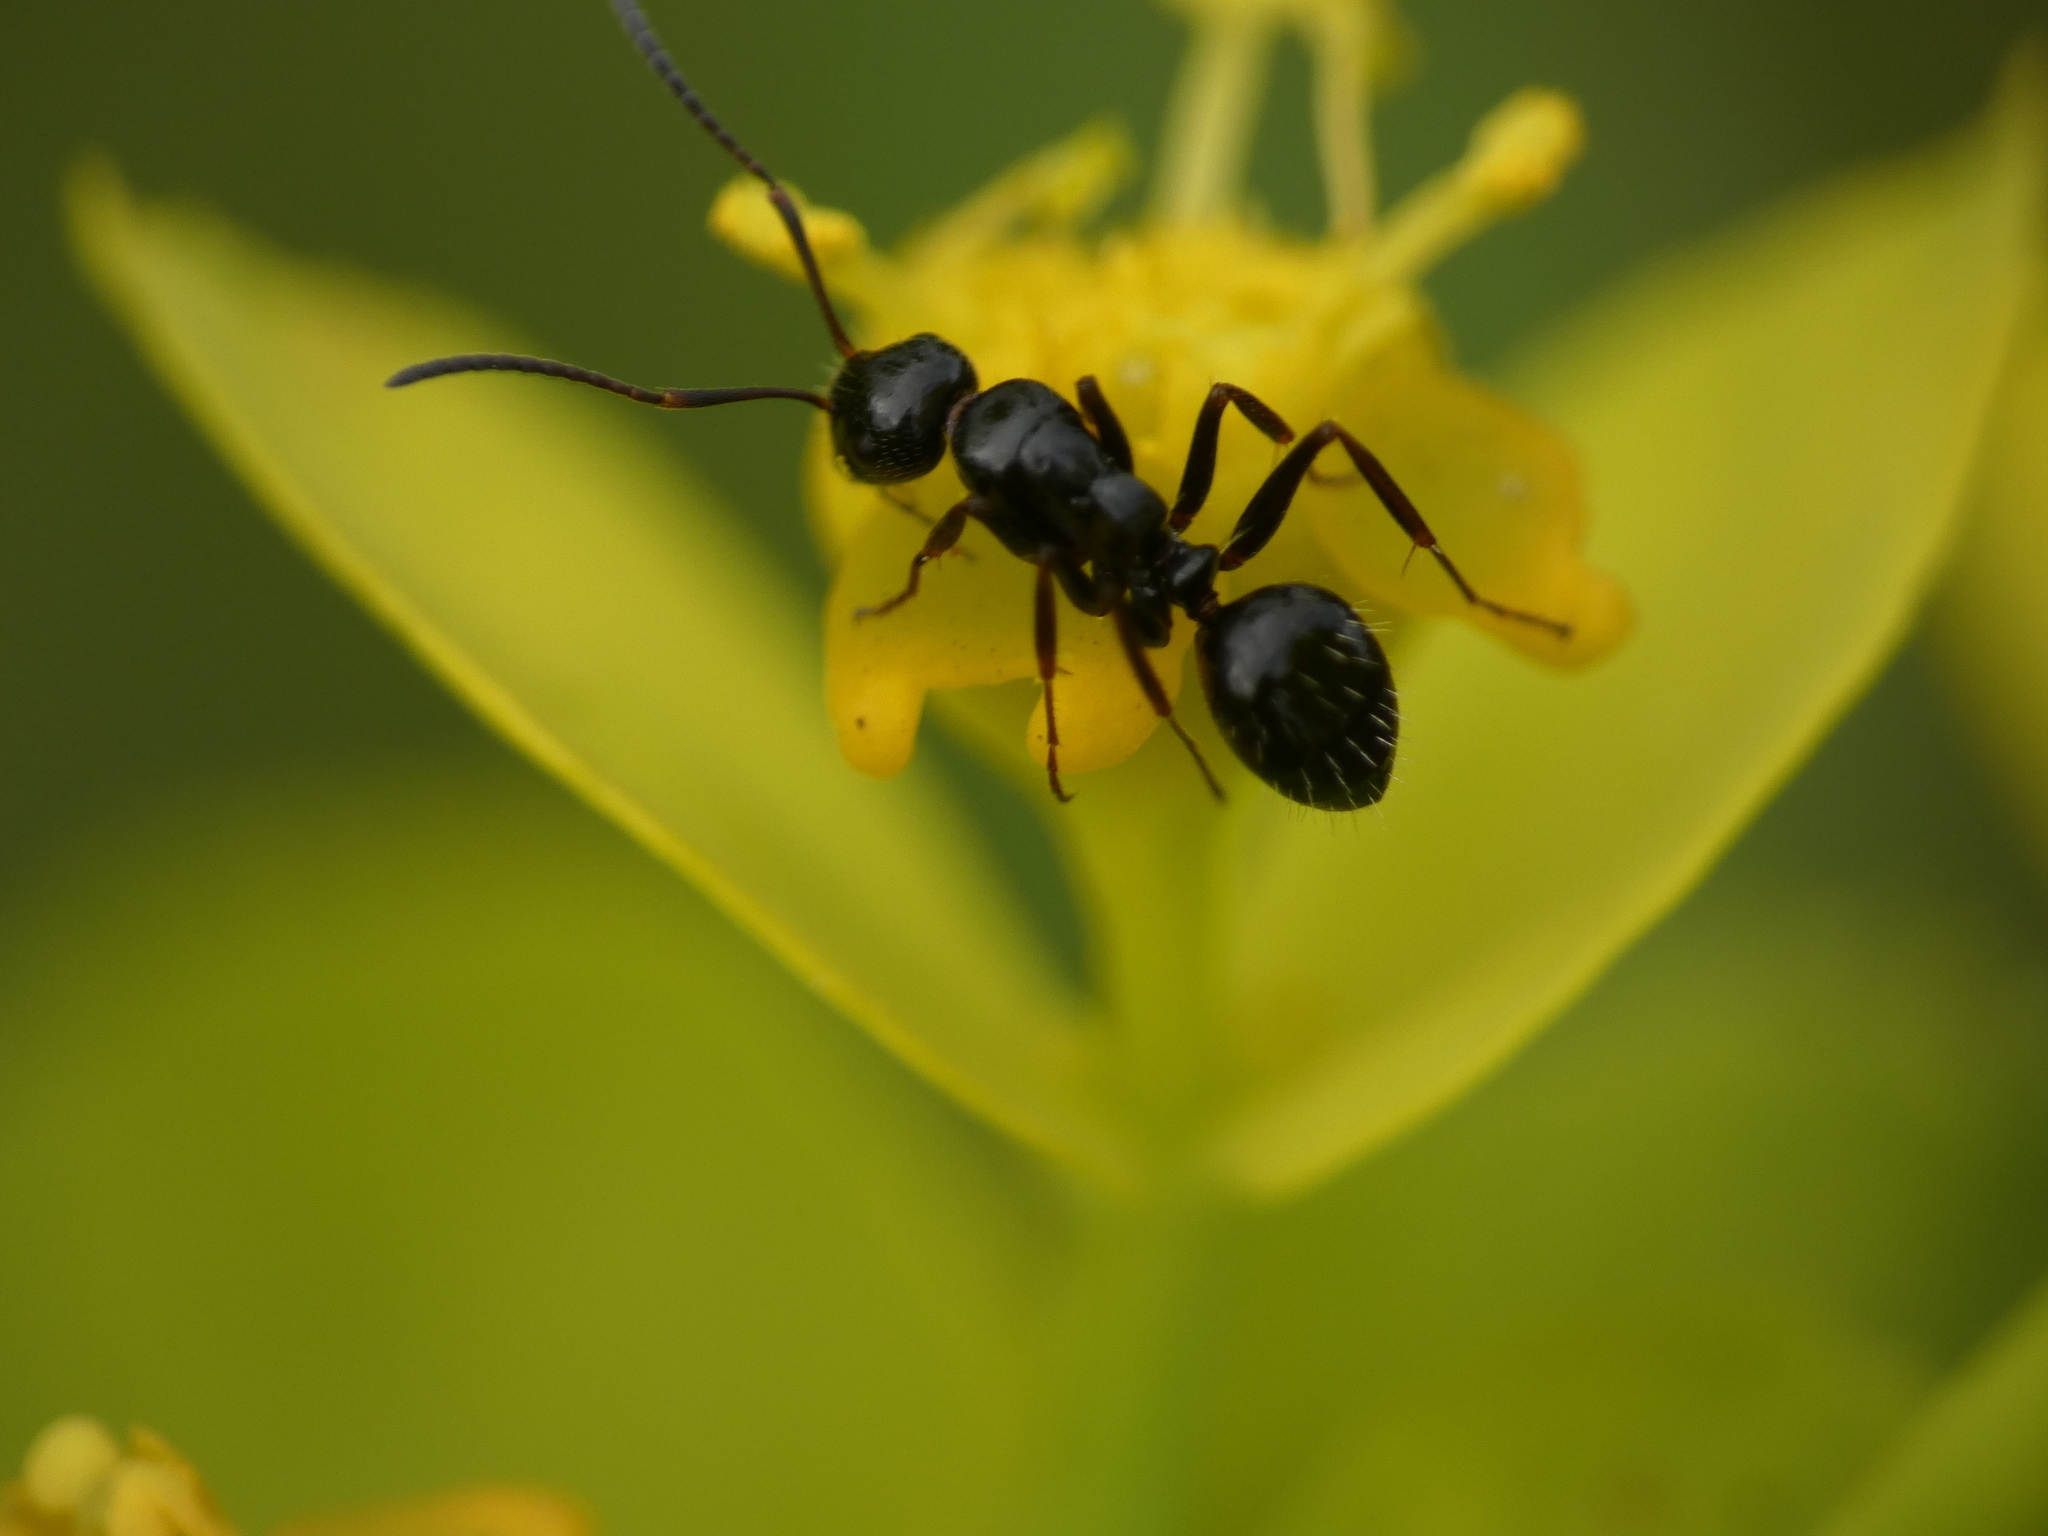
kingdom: Animalia
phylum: Arthropoda
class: Insecta
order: Hymenoptera
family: Formicidae
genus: Camponotus
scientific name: Camponotus piceus
